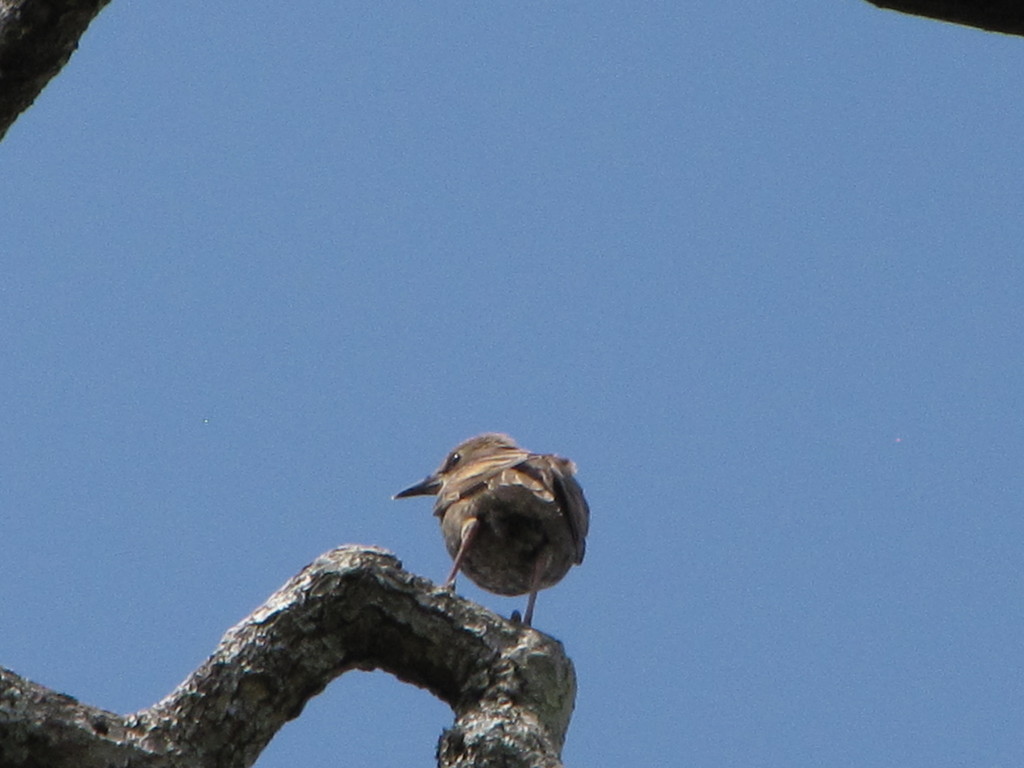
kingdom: Animalia
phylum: Chordata
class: Aves
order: Passeriformes
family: Sturnidae
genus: Sturnus
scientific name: Sturnus vulgaris
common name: Common starling
